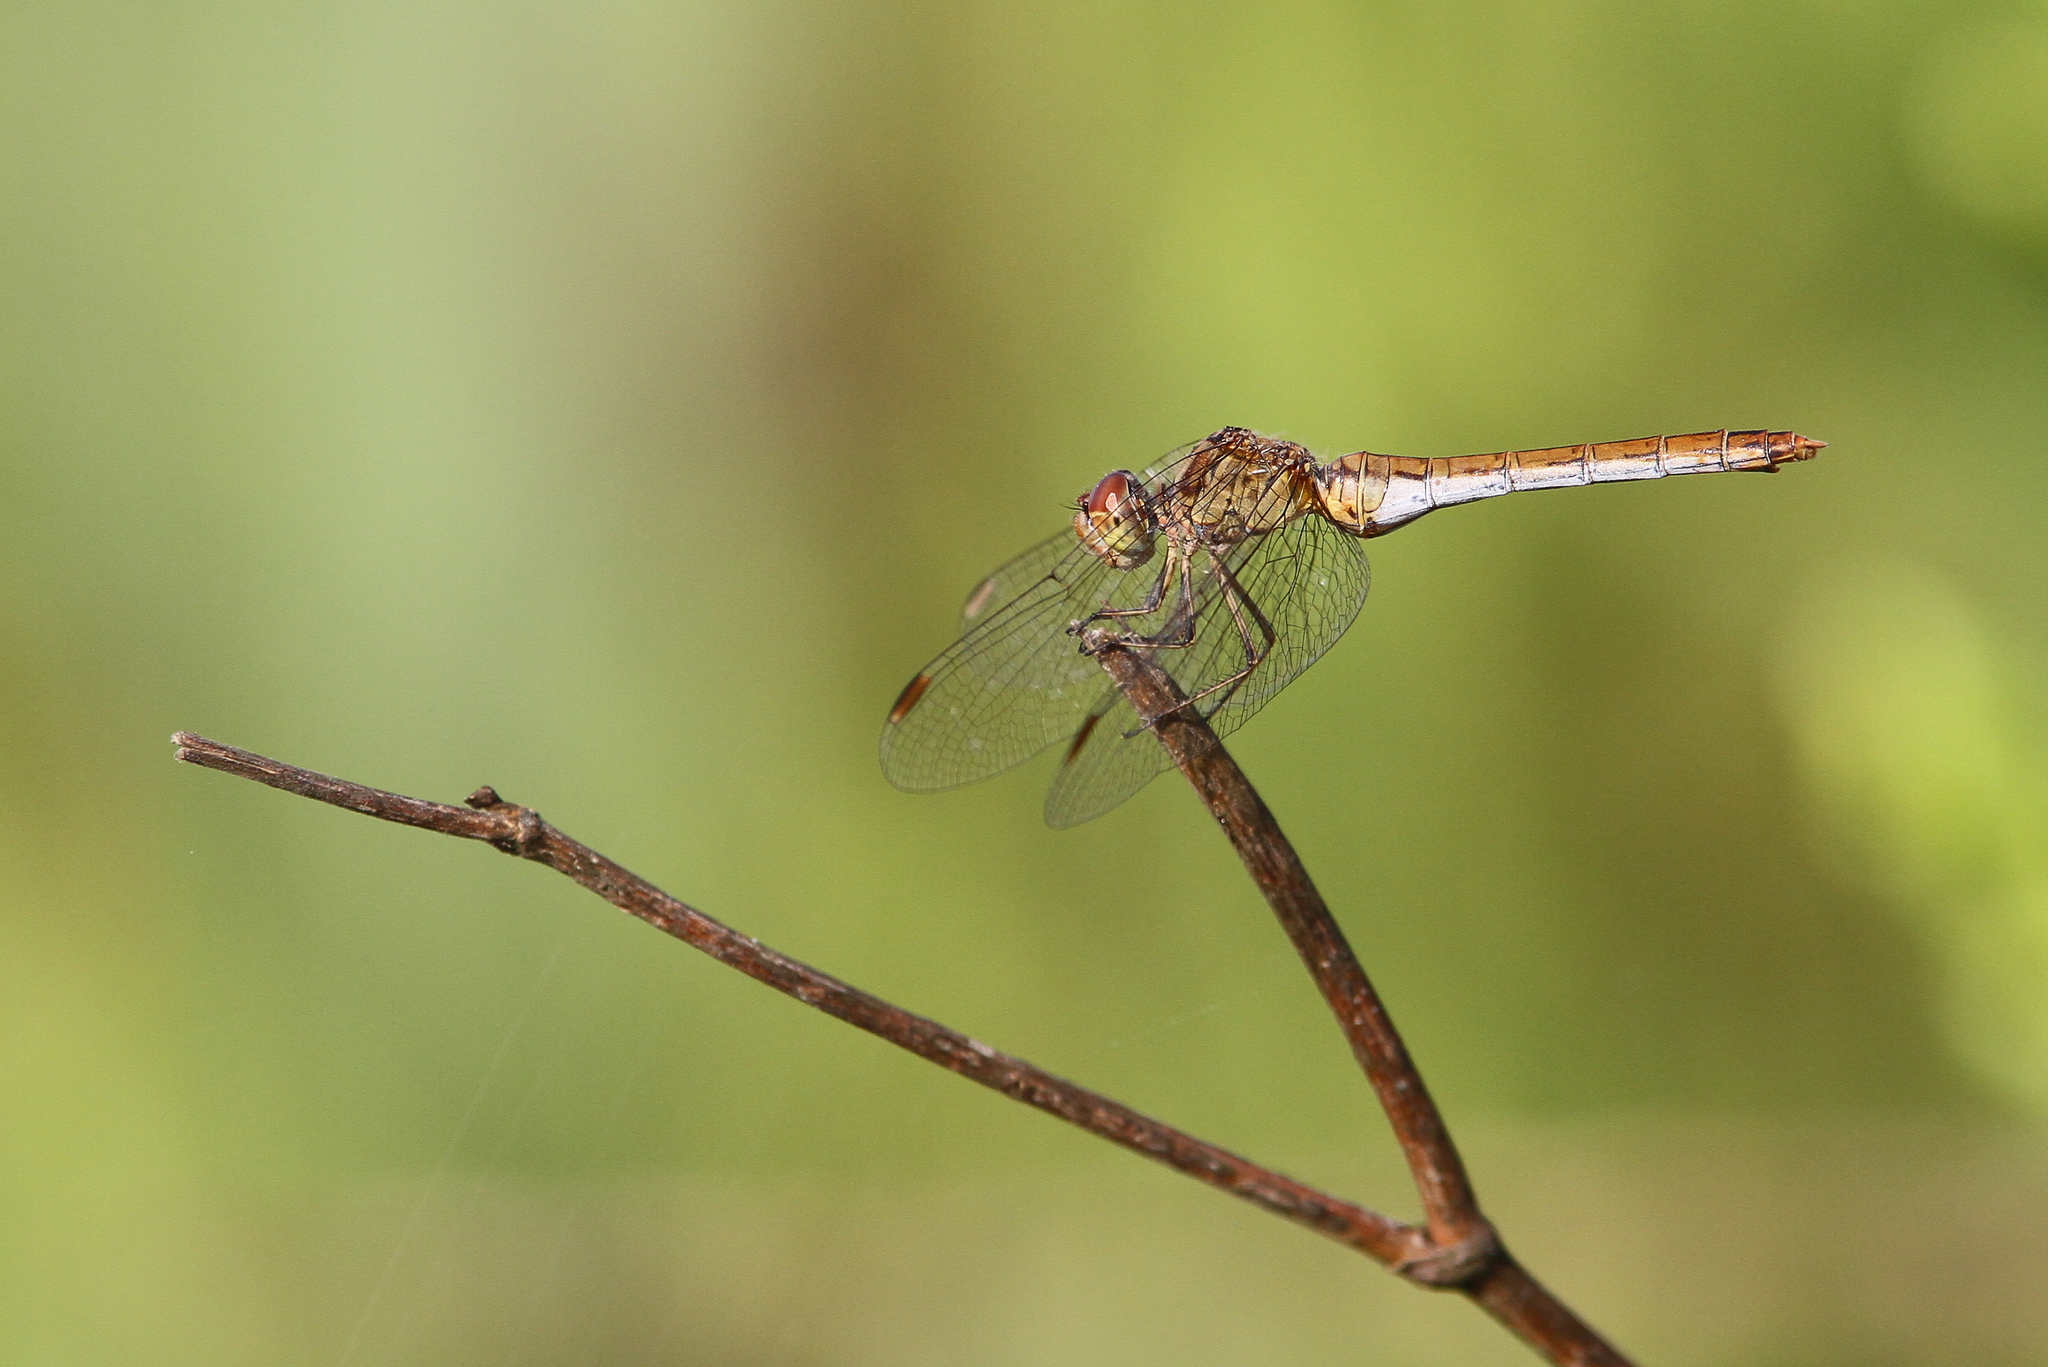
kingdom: Animalia
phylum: Arthropoda
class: Insecta
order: Odonata
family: Libellulidae
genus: Sympetrum
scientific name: Sympetrum meridionale
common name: Southern darter
